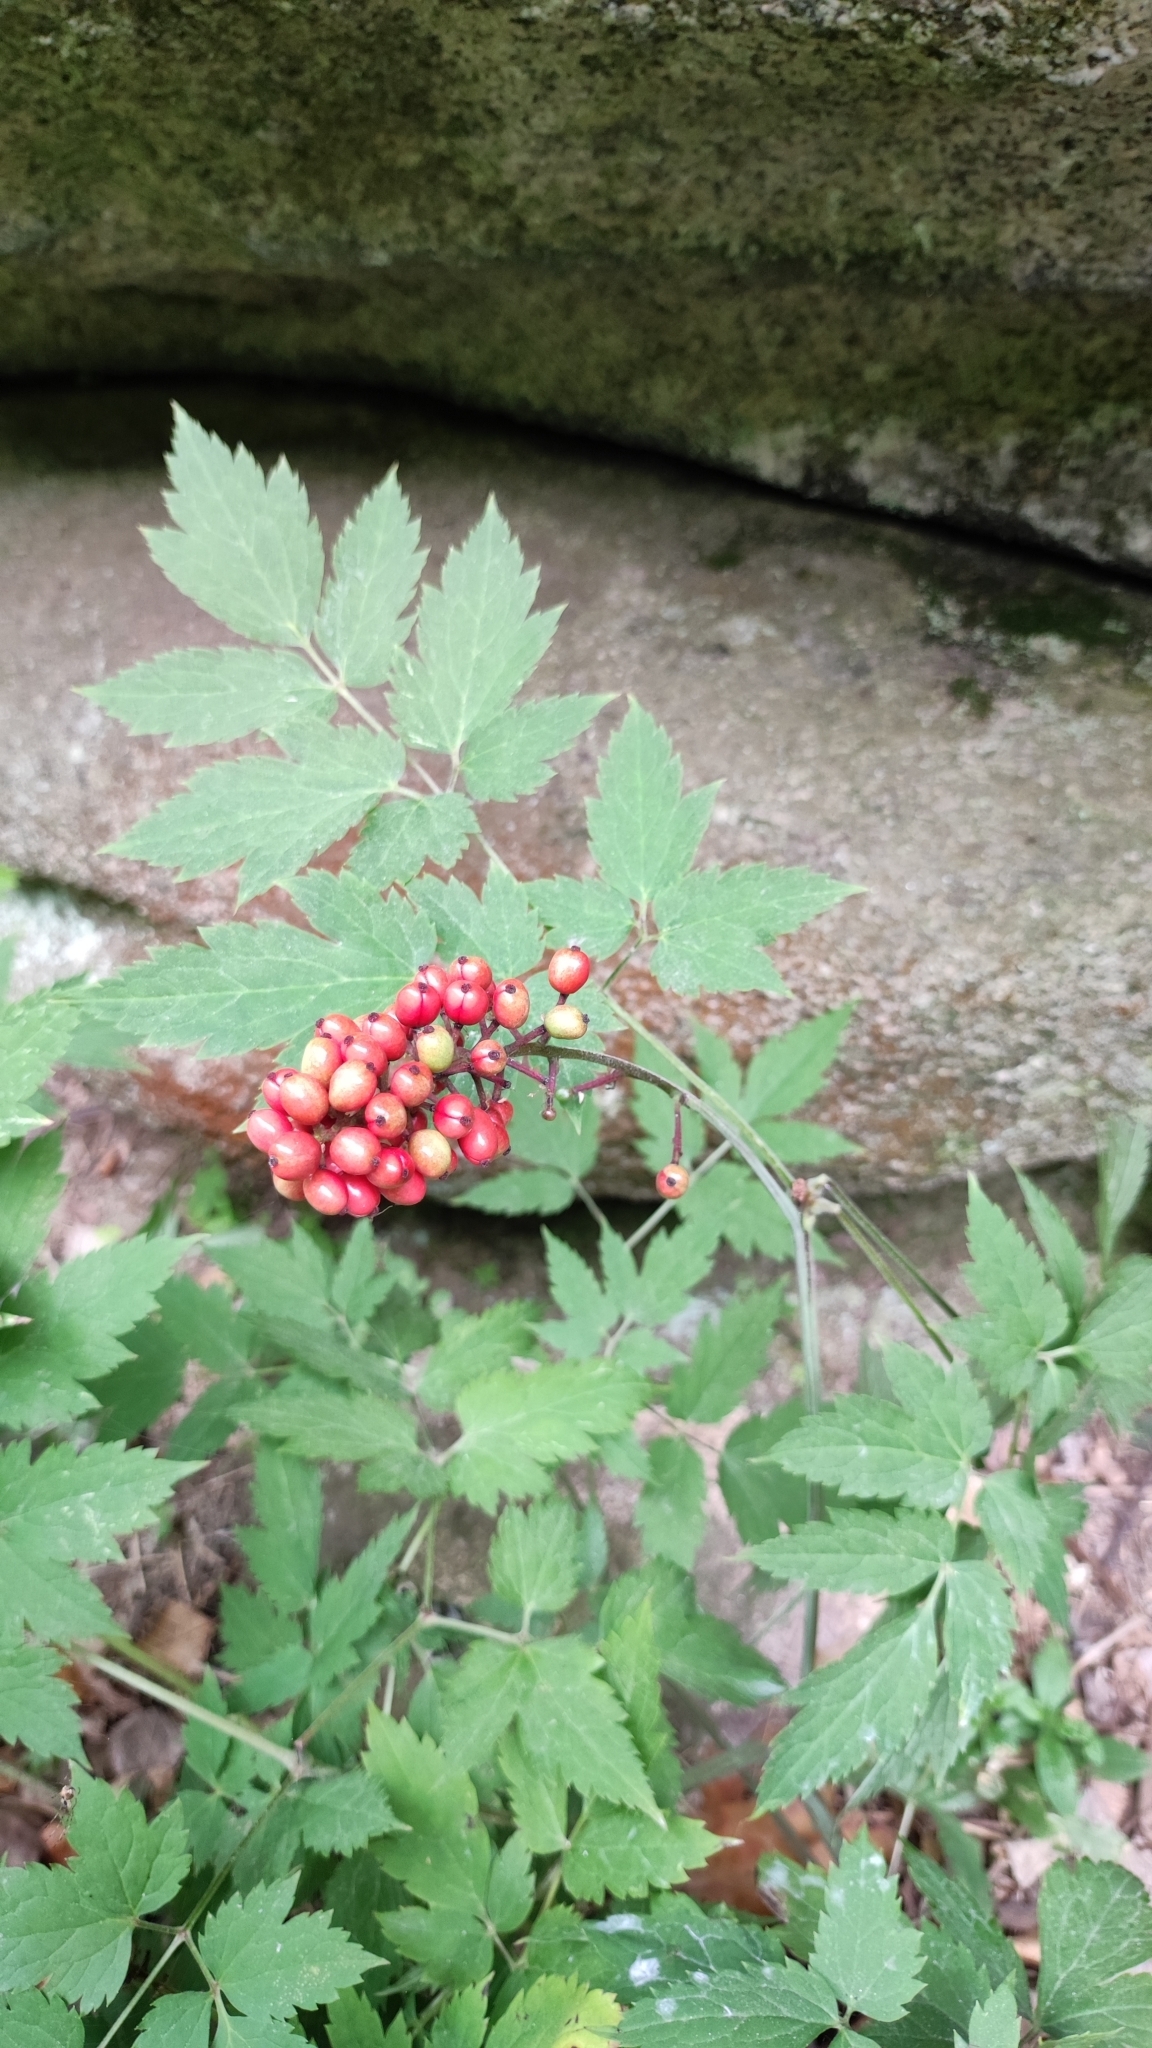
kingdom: Plantae
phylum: Tracheophyta
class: Magnoliopsida
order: Ranunculales
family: Ranunculaceae
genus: Actaea
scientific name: Actaea erythrocarpa
